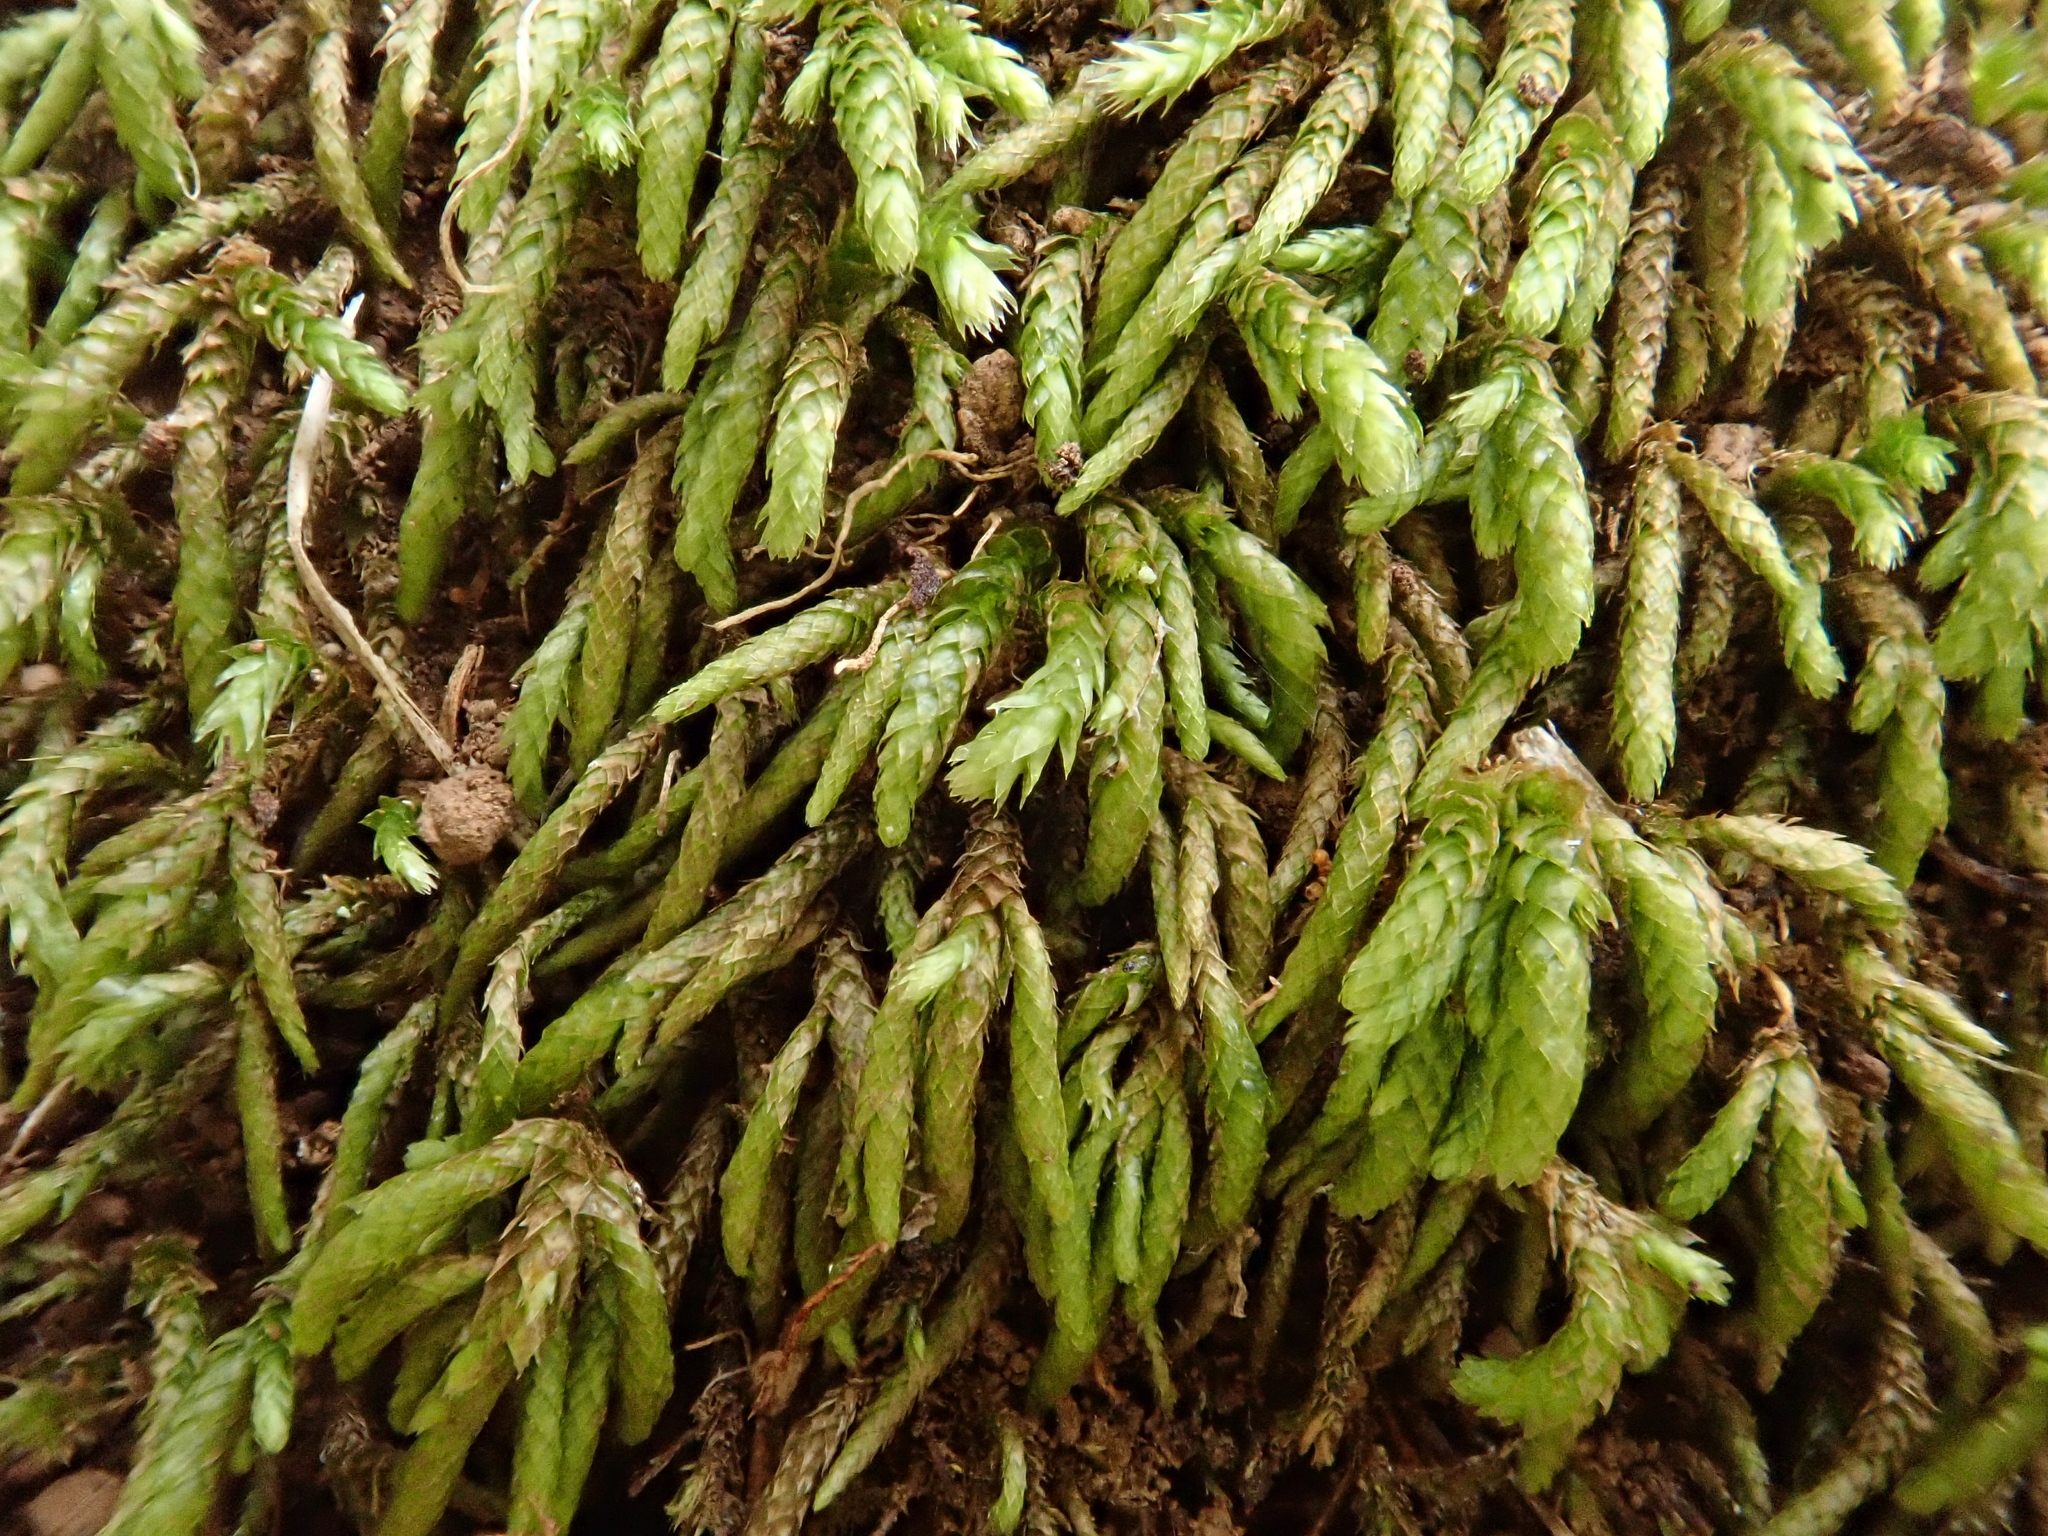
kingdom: Plantae
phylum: Bryophyta
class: Bryopsida
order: Hypnales
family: Lembophyllaceae
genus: Nogopterium
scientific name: Nogopterium gracile
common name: Bird's-foot wing-moss
